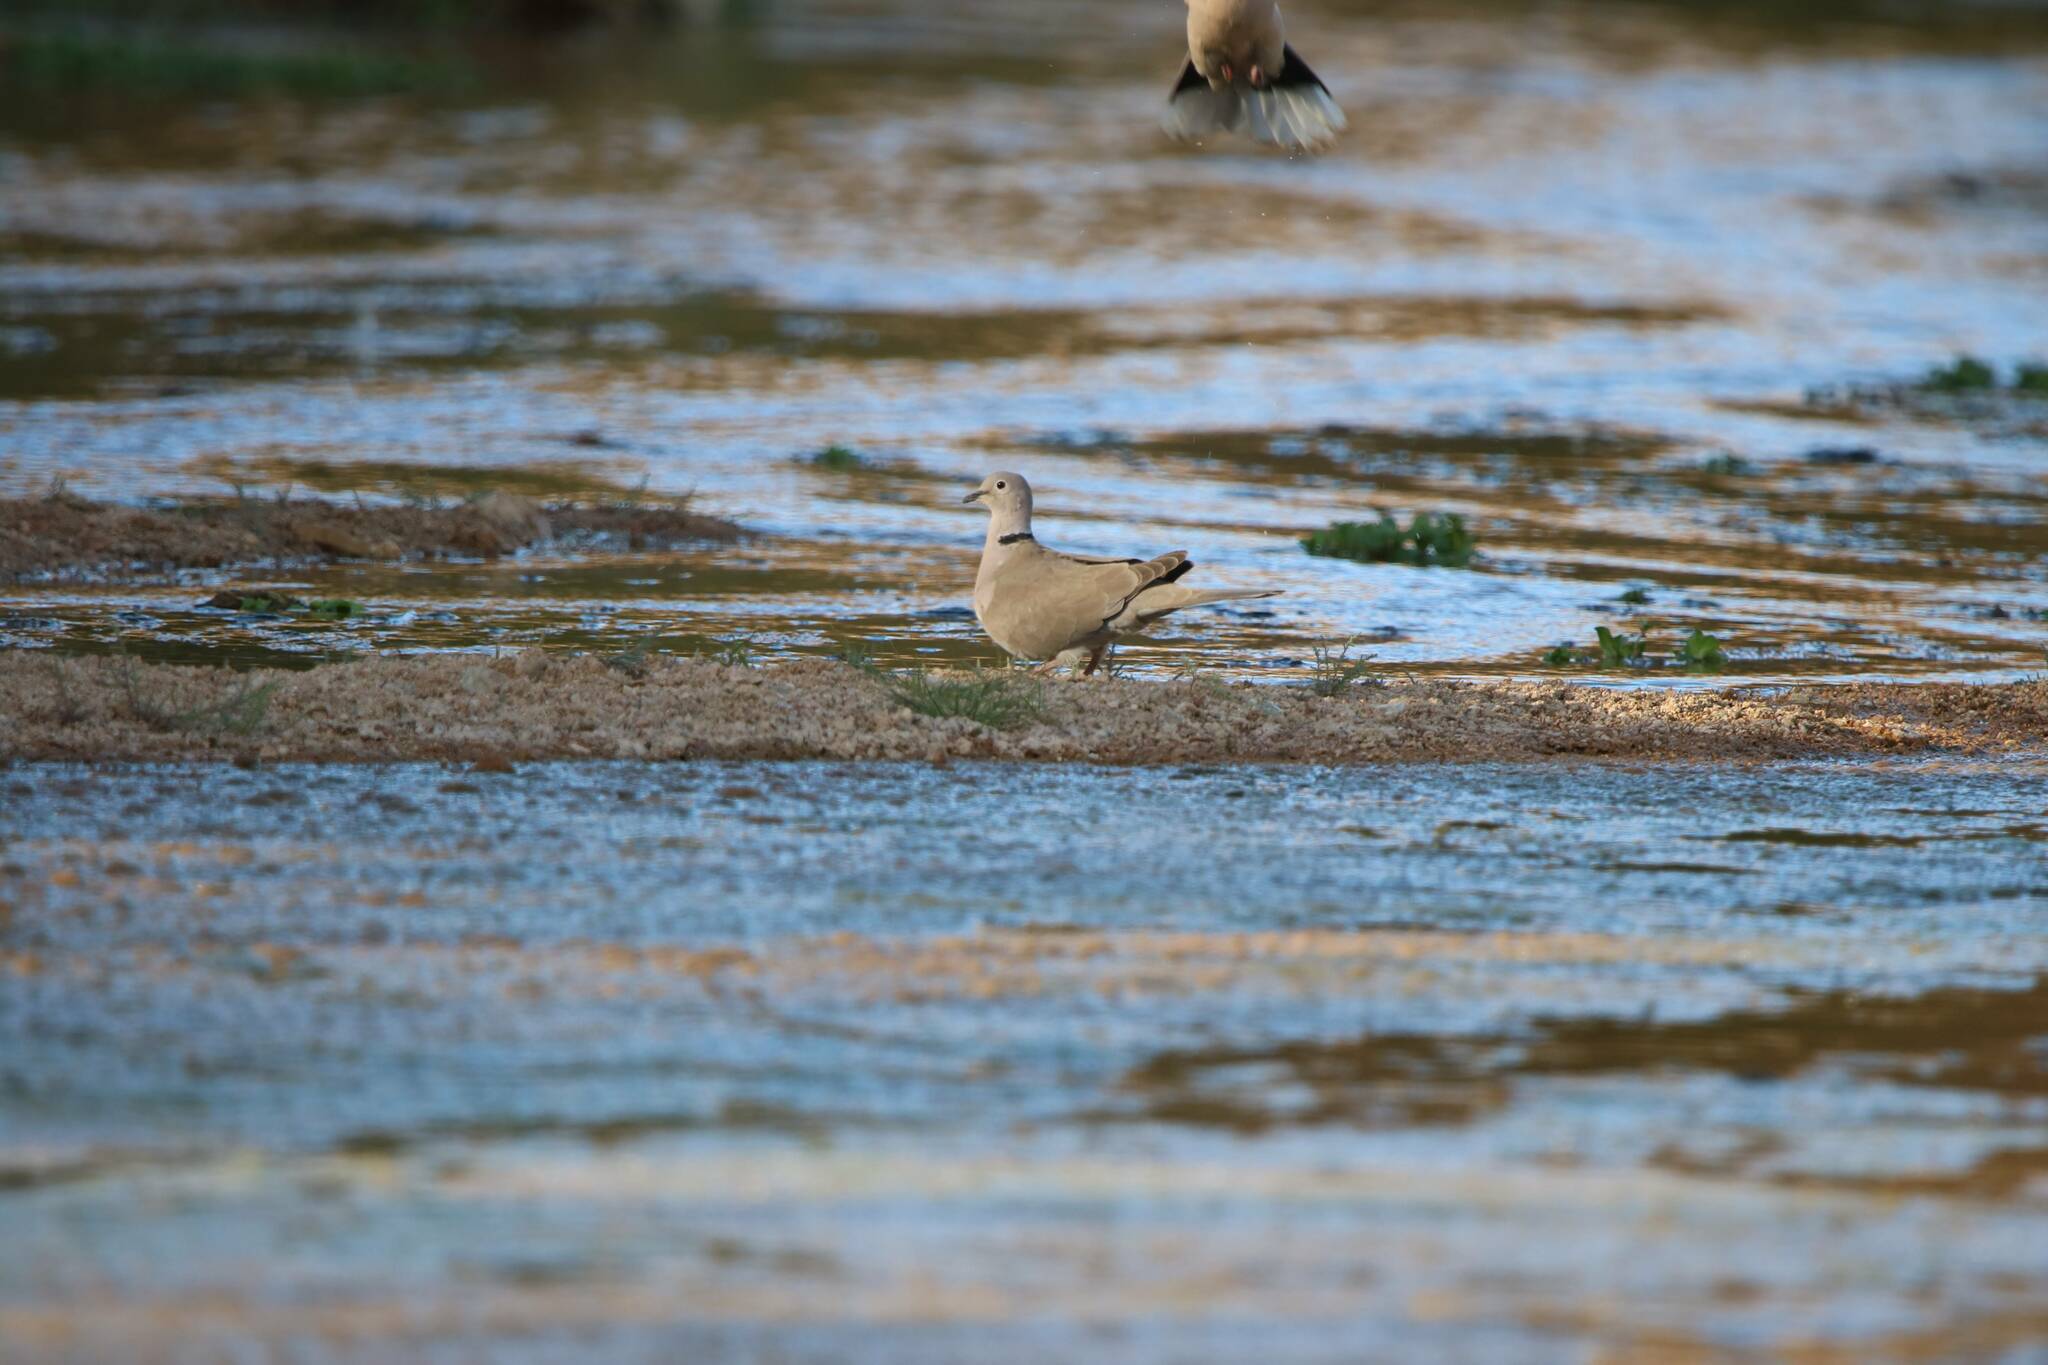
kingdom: Animalia
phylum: Chordata
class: Aves
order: Columbiformes
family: Columbidae
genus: Streptopelia
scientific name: Streptopelia decaocto
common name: Eurasian collared dove
